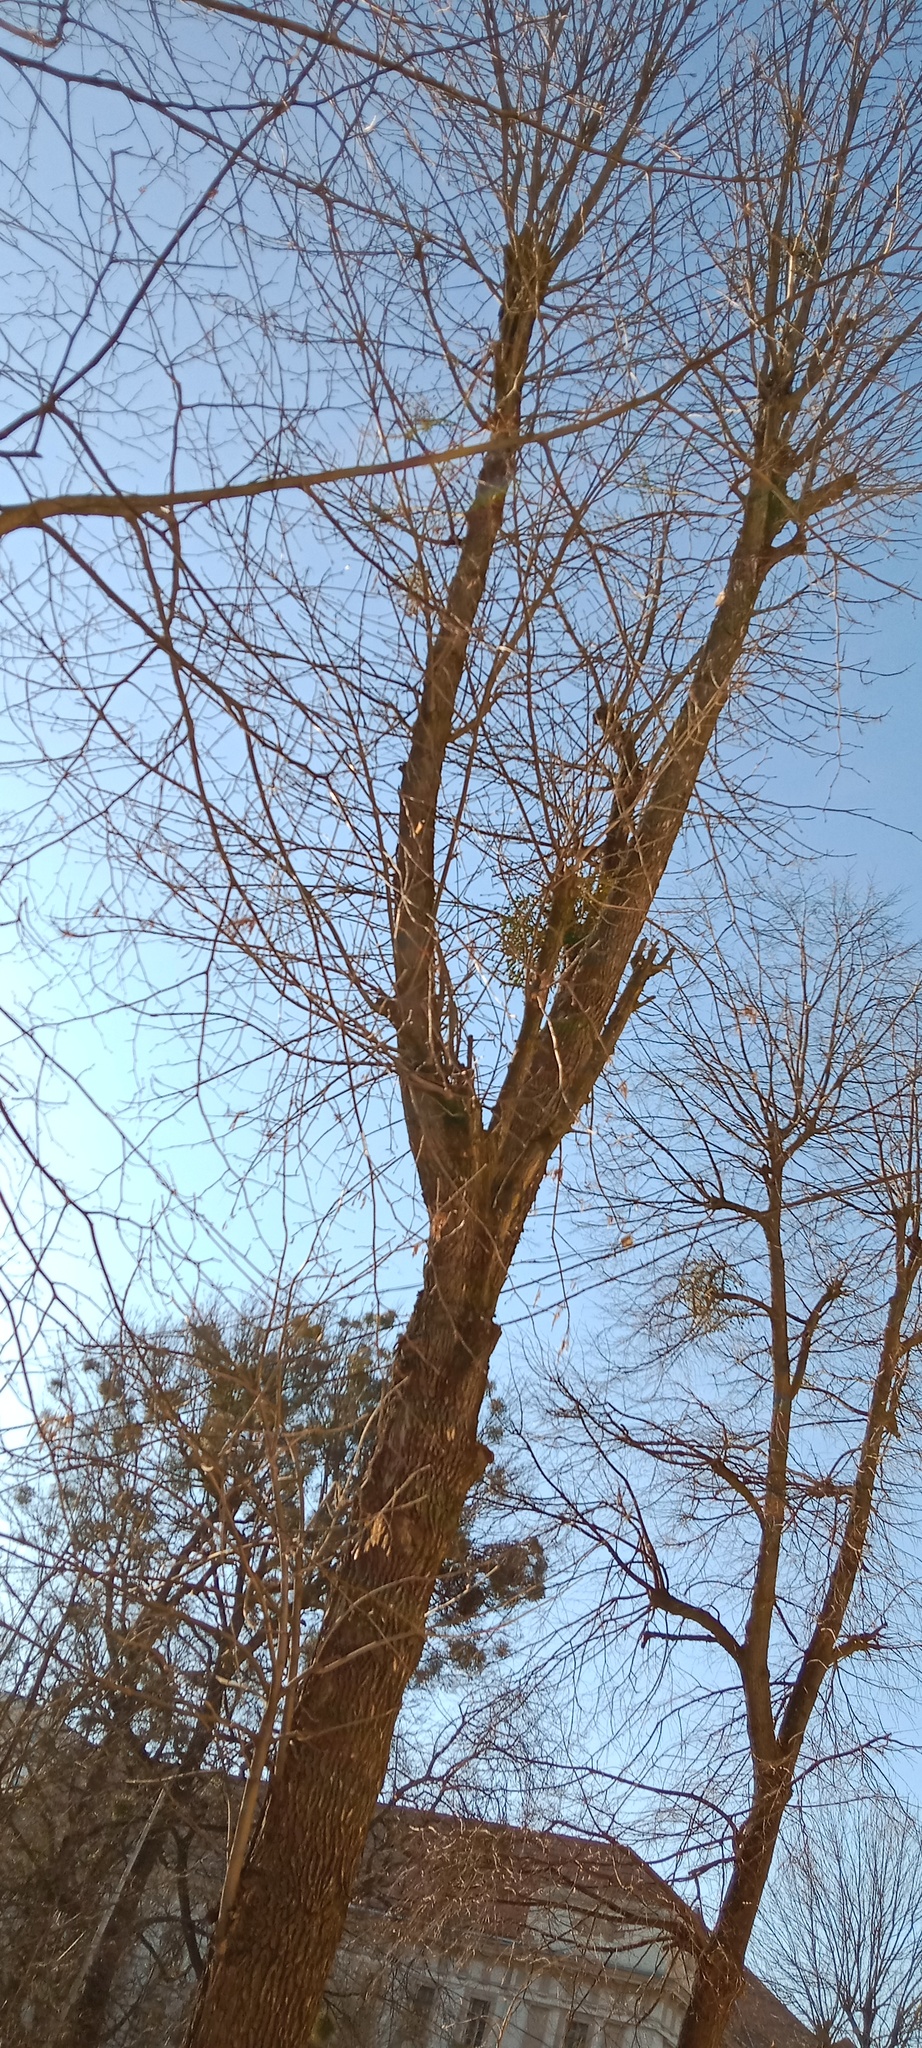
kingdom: Plantae
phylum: Tracheophyta
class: Magnoliopsida
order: Santalales
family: Viscaceae
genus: Viscum
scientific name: Viscum album
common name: Mistletoe
